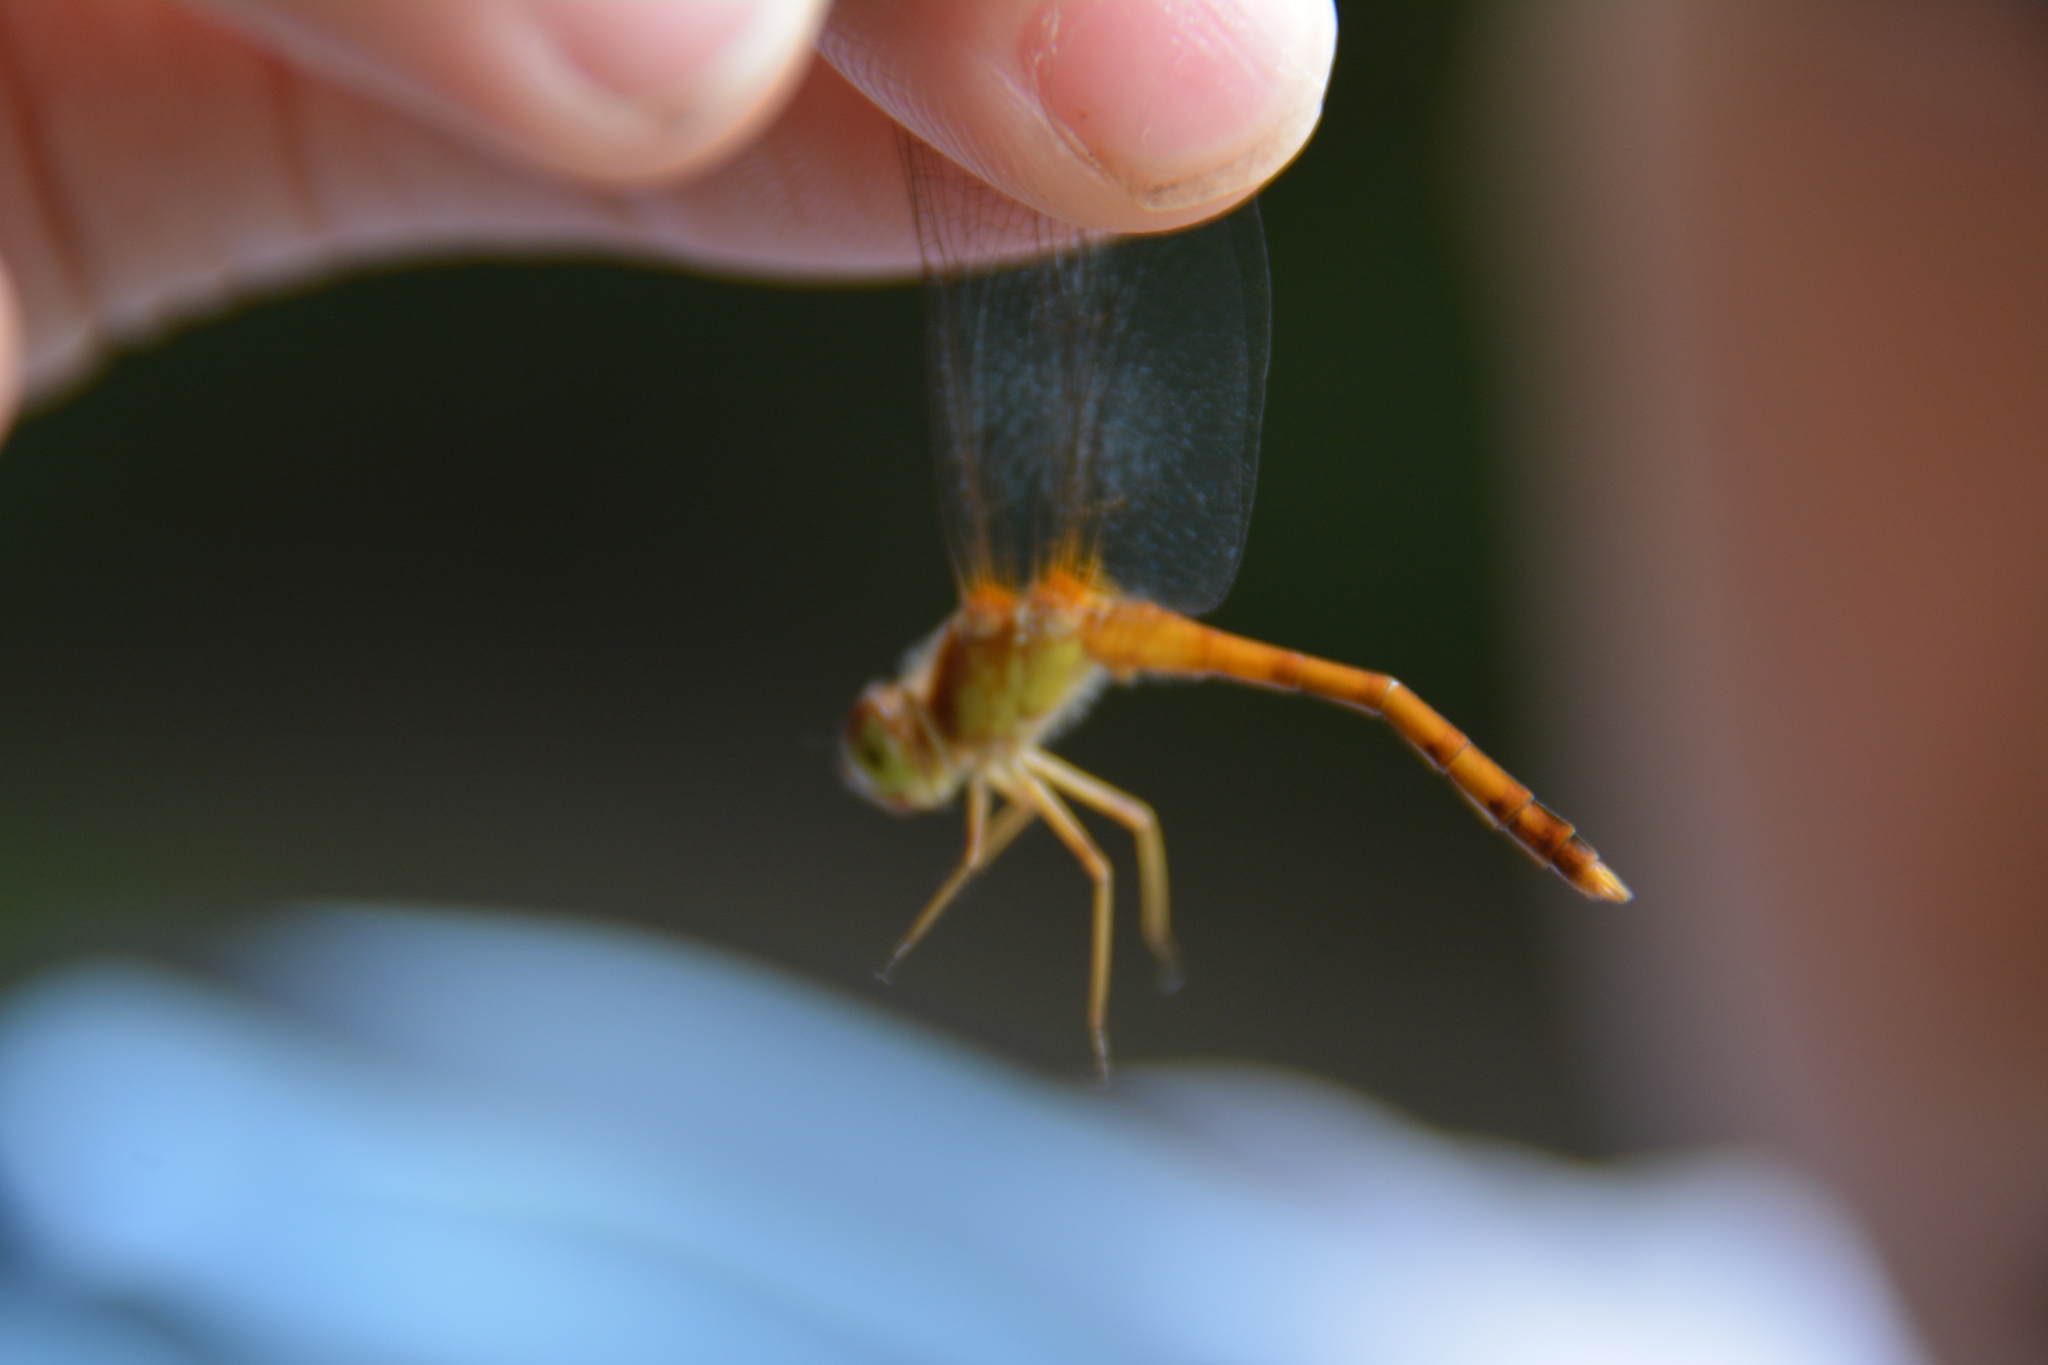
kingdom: Animalia
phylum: Arthropoda
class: Insecta
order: Odonata
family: Libellulidae
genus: Sympetrum
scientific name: Sympetrum vicinum
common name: Autumn meadowhawk
